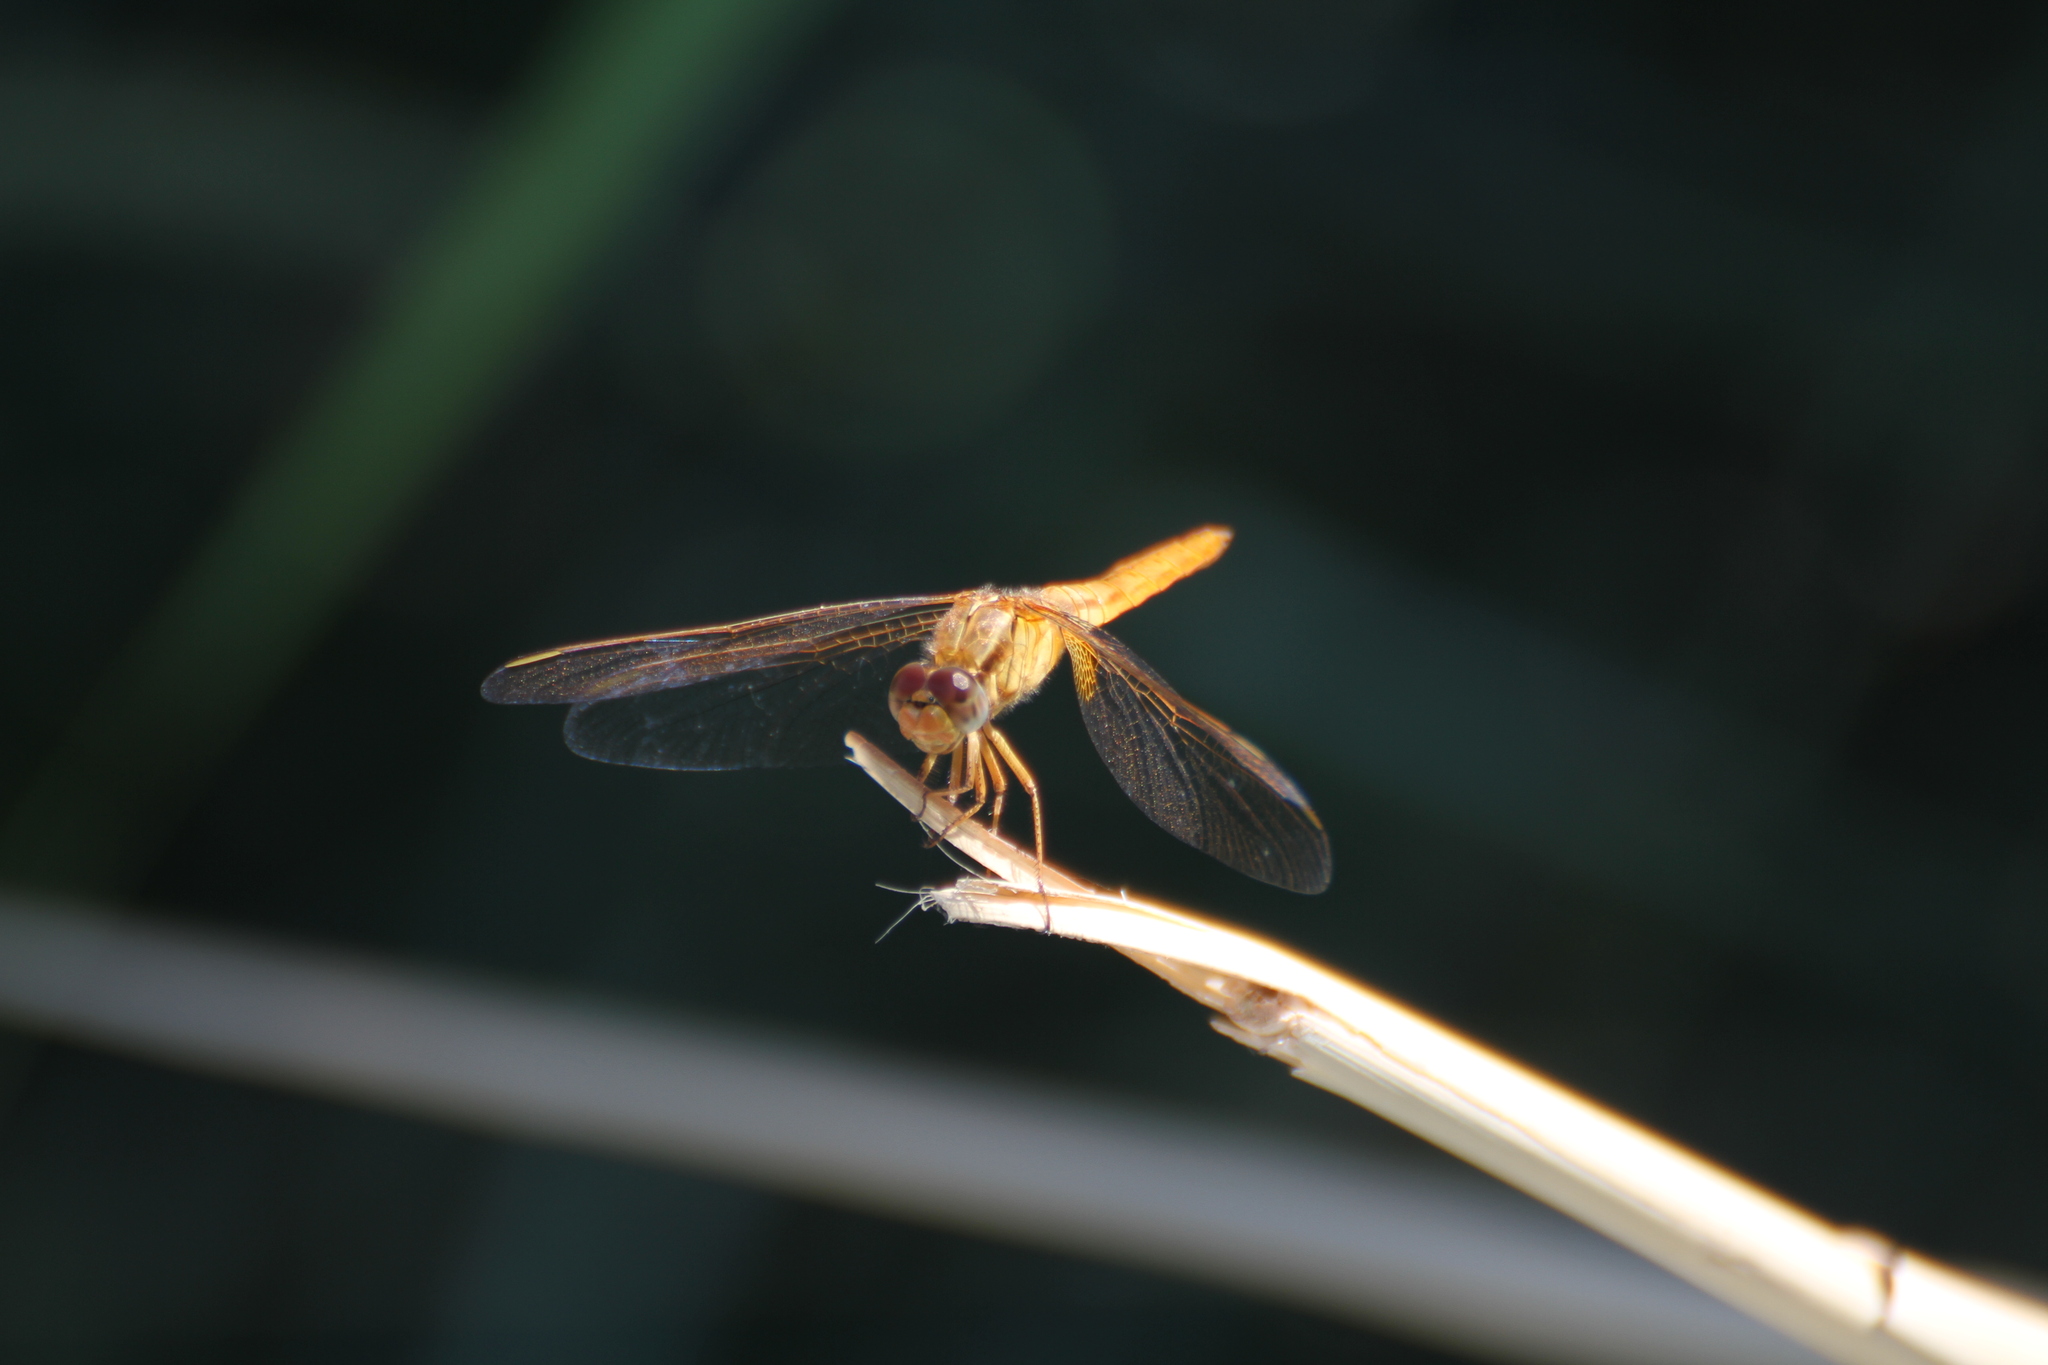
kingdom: Animalia
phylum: Arthropoda
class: Insecta
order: Odonata
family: Libellulidae
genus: Crocothemis
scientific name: Crocothemis erythraea
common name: Scarlet dragonfly
